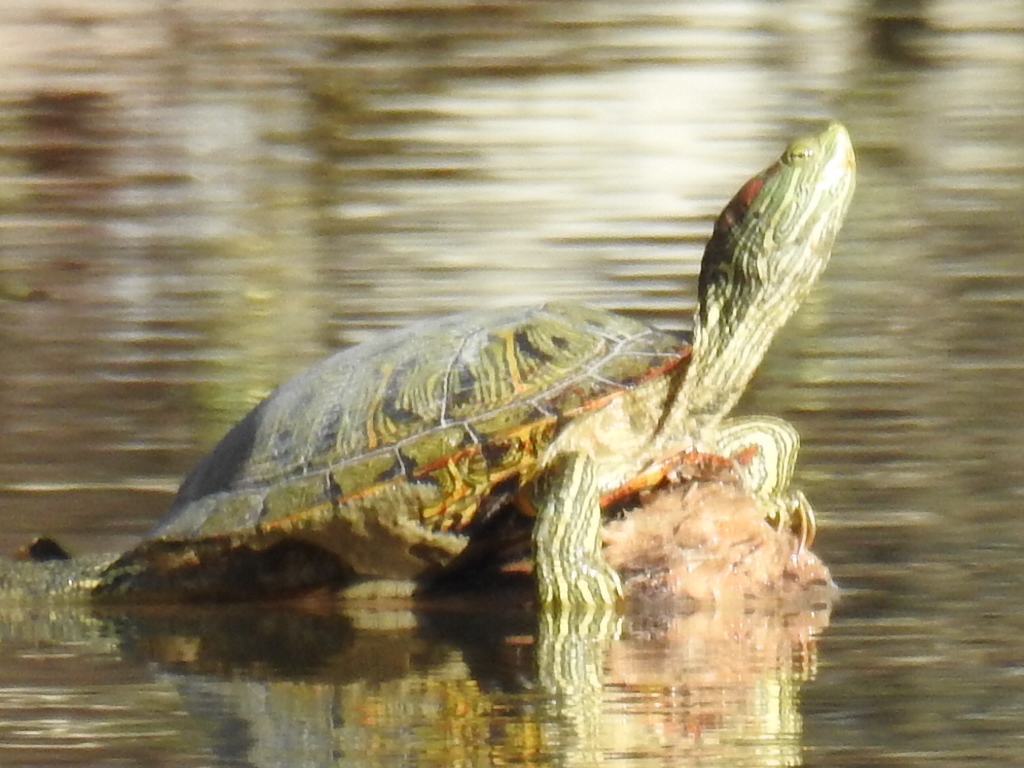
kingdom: Animalia
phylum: Chordata
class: Testudines
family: Emydidae
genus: Trachemys
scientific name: Trachemys scripta
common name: Slider
